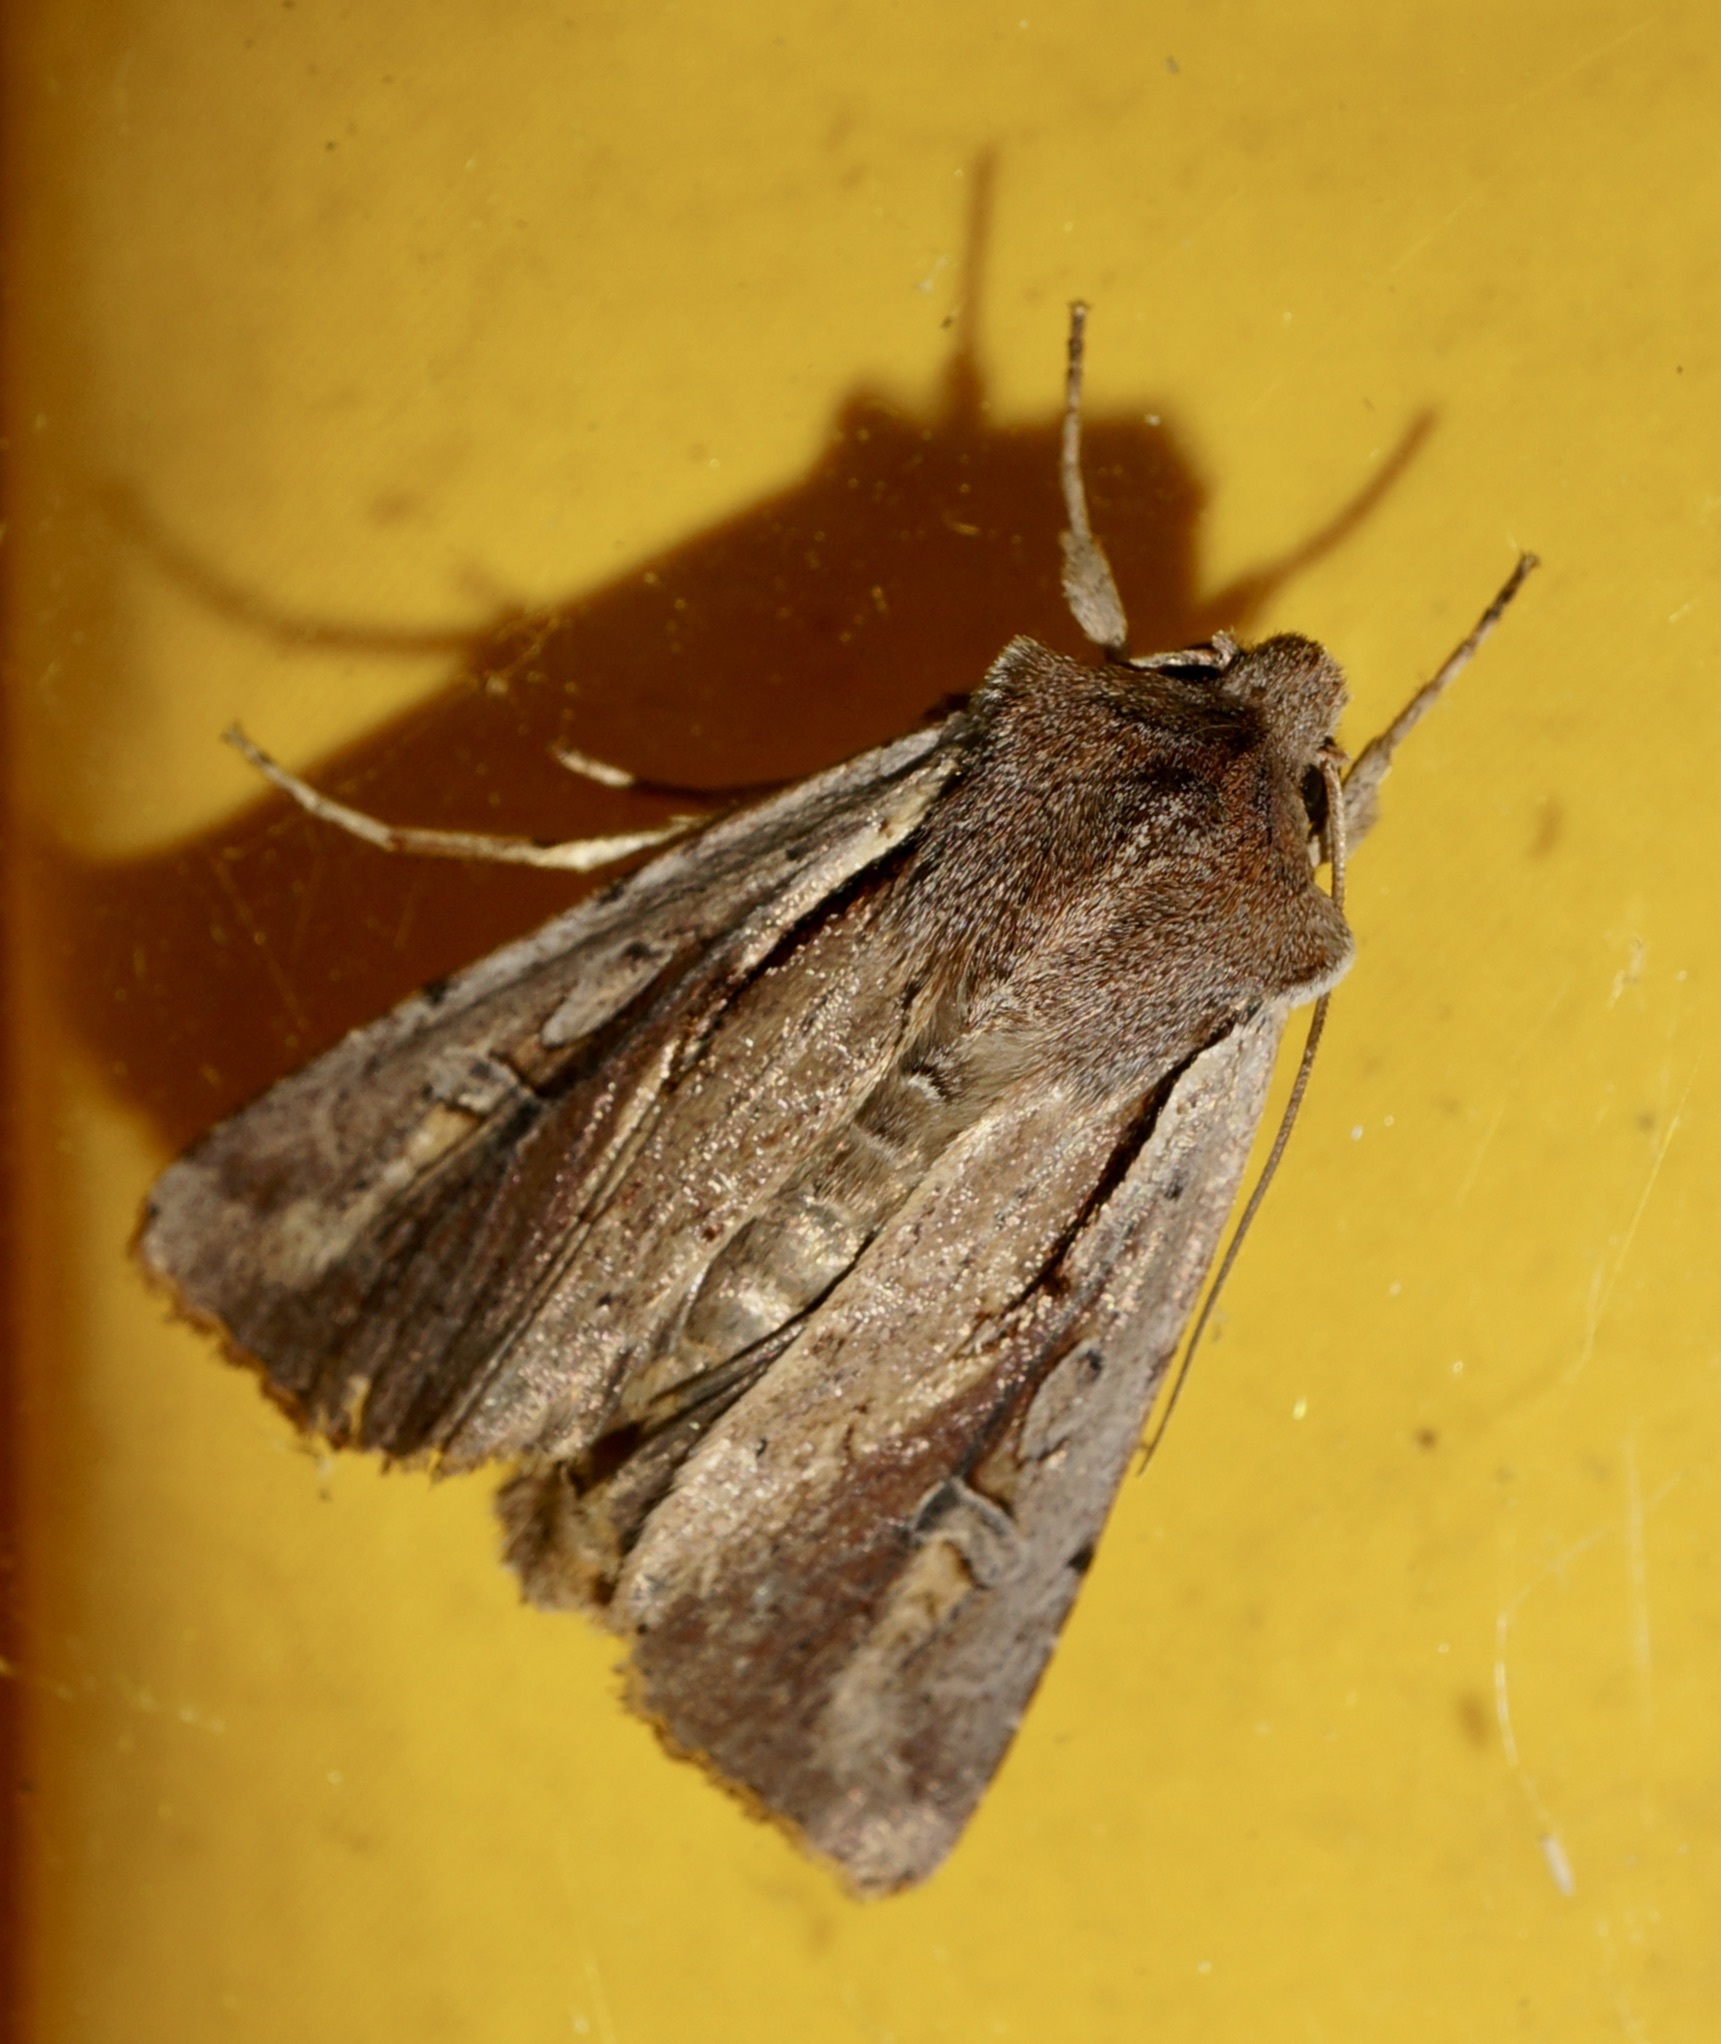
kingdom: Animalia
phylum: Arthropoda
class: Insecta
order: Lepidoptera
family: Noctuidae
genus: Ichneutica
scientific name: Ichneutica atristriga
